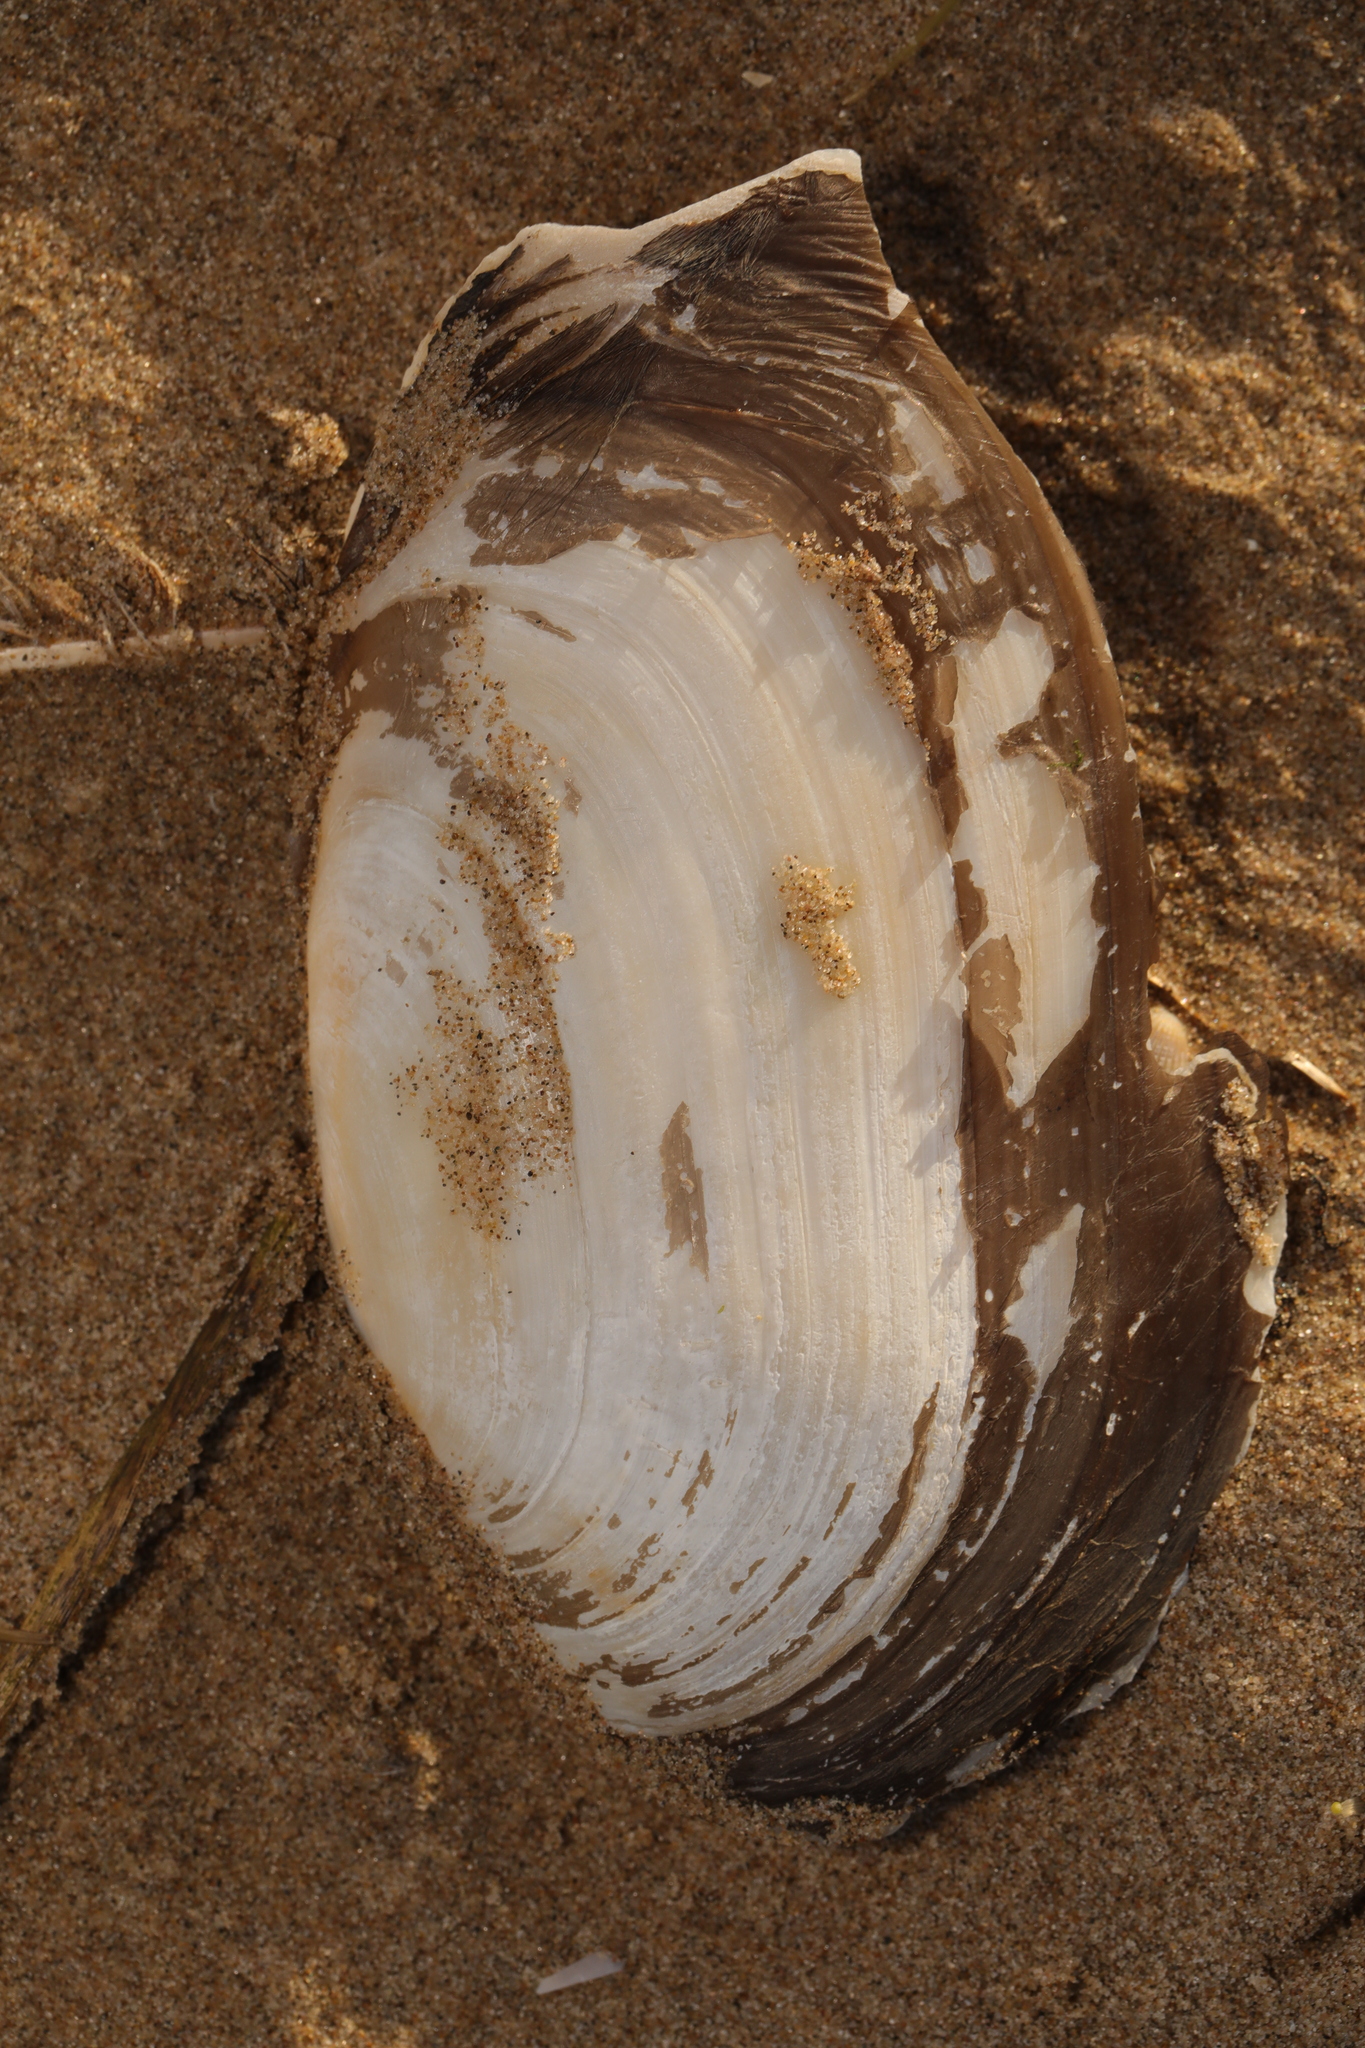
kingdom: Animalia
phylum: Mollusca
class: Bivalvia
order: Venerida
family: Mactridae
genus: Lutraria
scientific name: Lutraria lutraria
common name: Common otter shell
